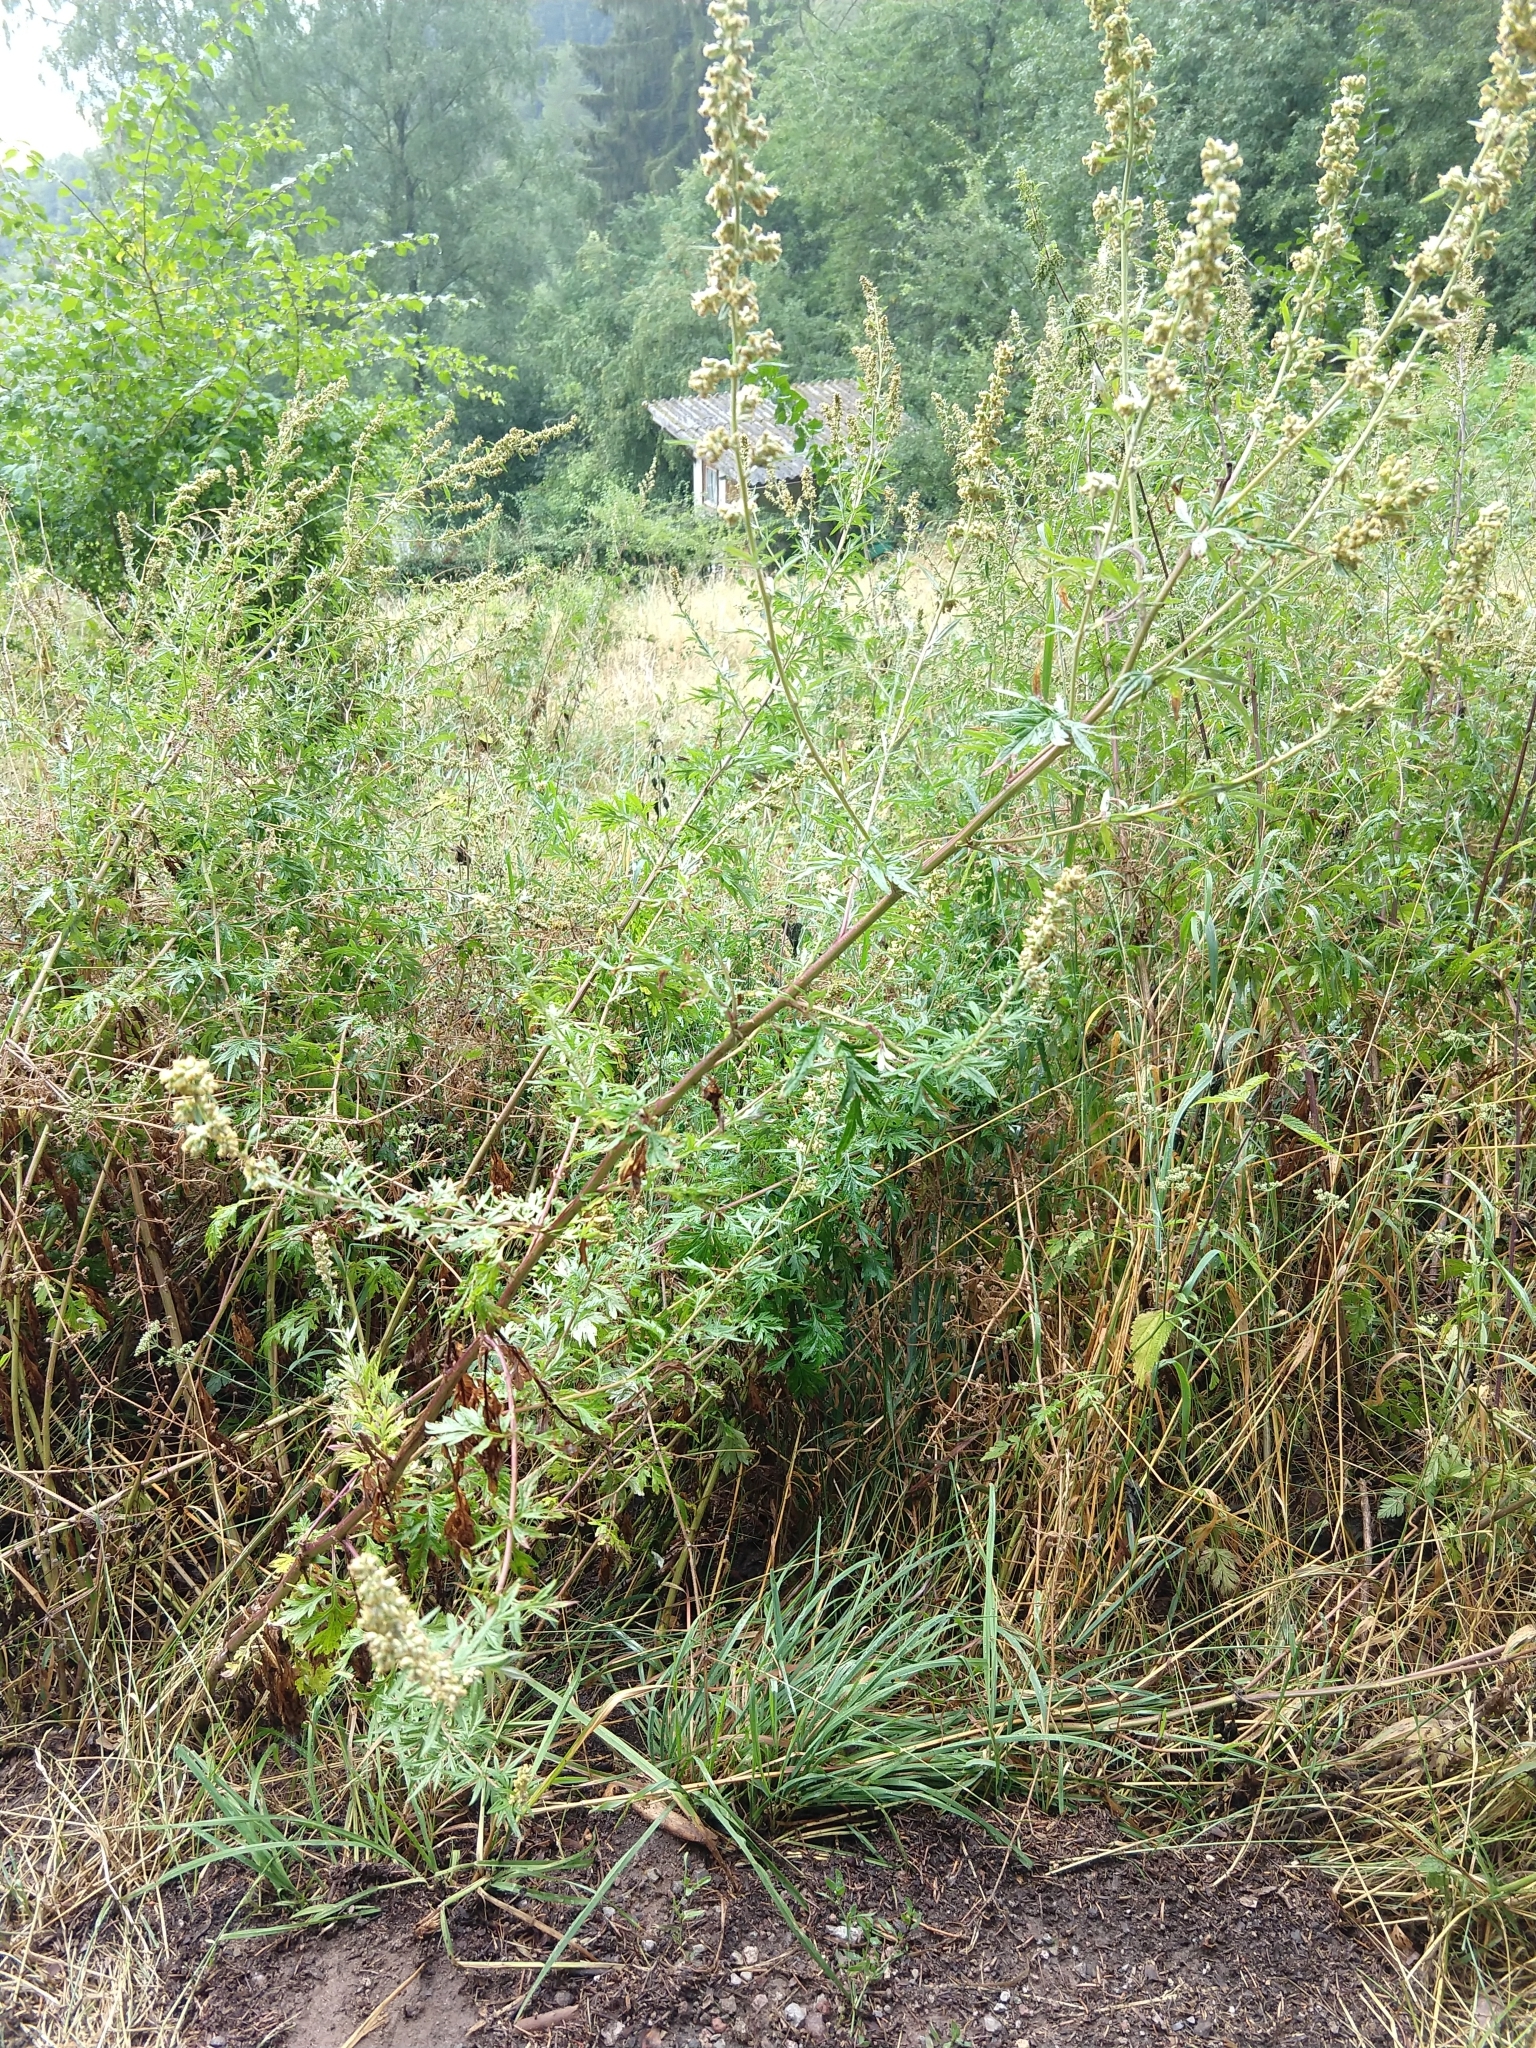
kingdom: Plantae
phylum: Tracheophyta
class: Magnoliopsida
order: Asterales
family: Asteraceae
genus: Artemisia
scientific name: Artemisia vulgaris
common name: Mugwort
